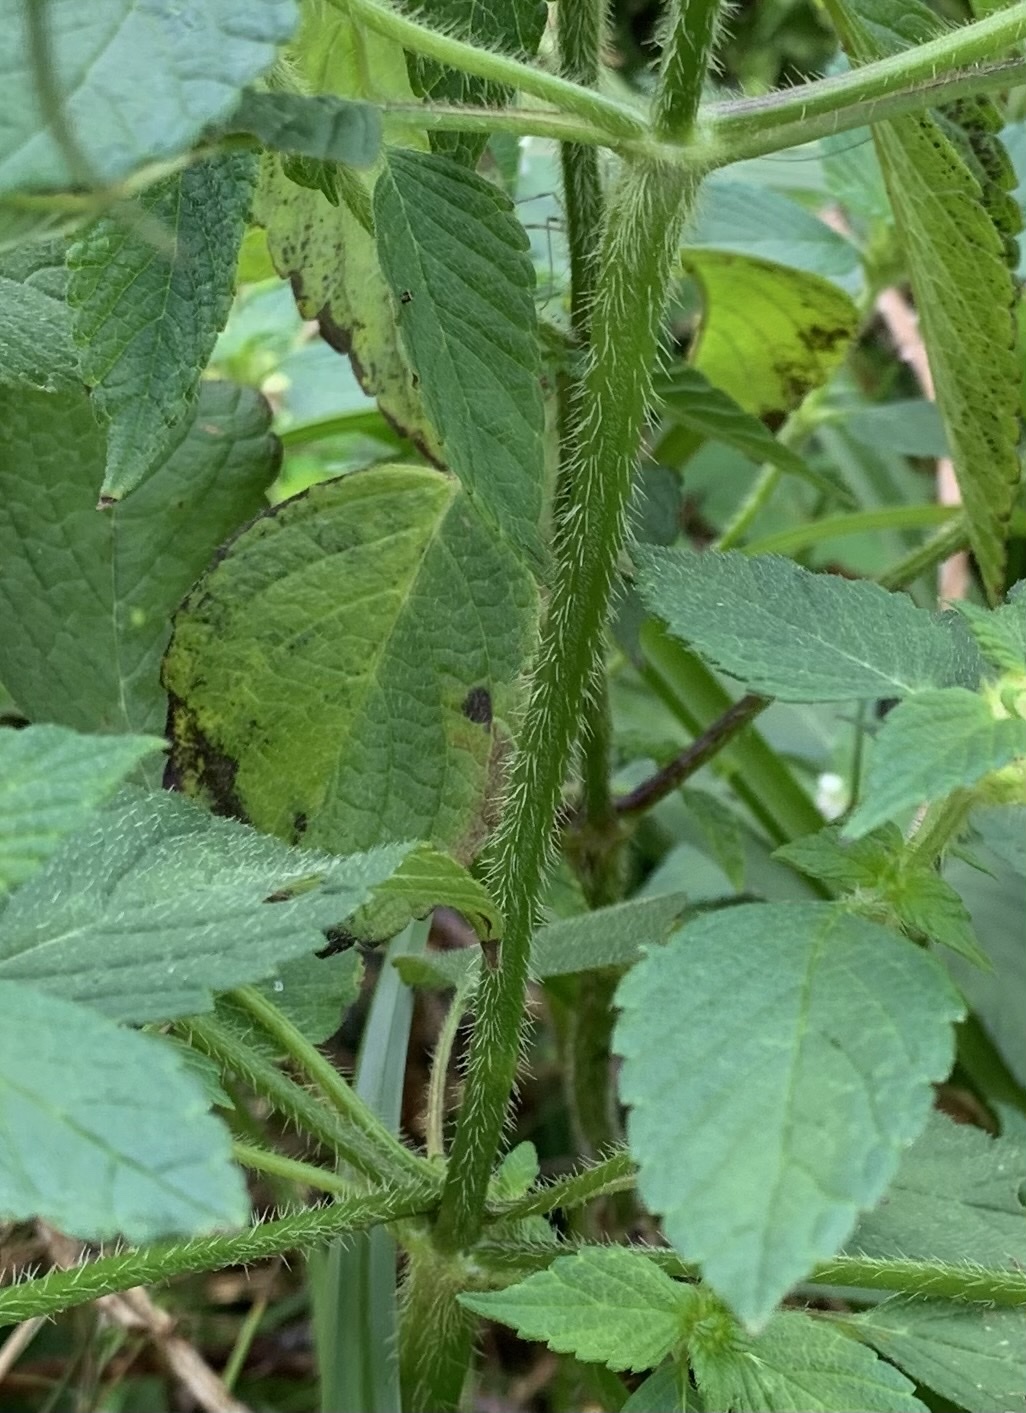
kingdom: Plantae
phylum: Tracheophyta
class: Magnoliopsida
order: Lamiales
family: Lamiaceae
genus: Galeopsis
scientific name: Galeopsis bifida
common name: Bifid hemp-nettle
